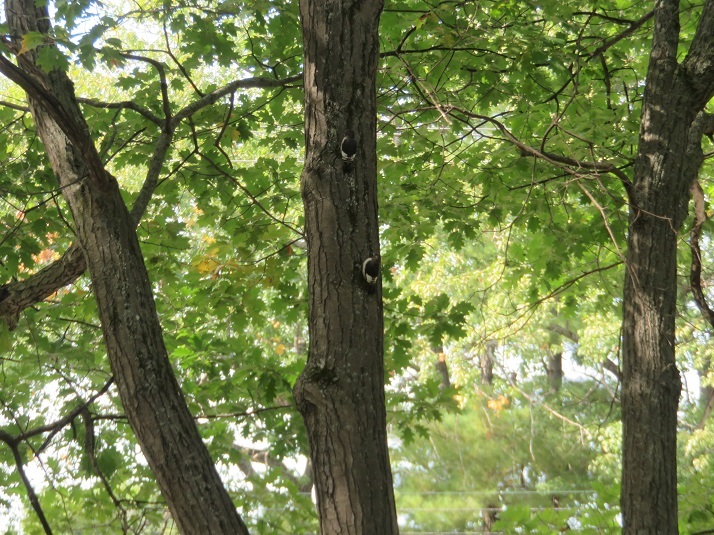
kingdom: Animalia
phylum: Chordata
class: Aves
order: Piciformes
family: Picidae
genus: Melanerpes
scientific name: Melanerpes erythrocephalus
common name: Red-headed woodpecker
